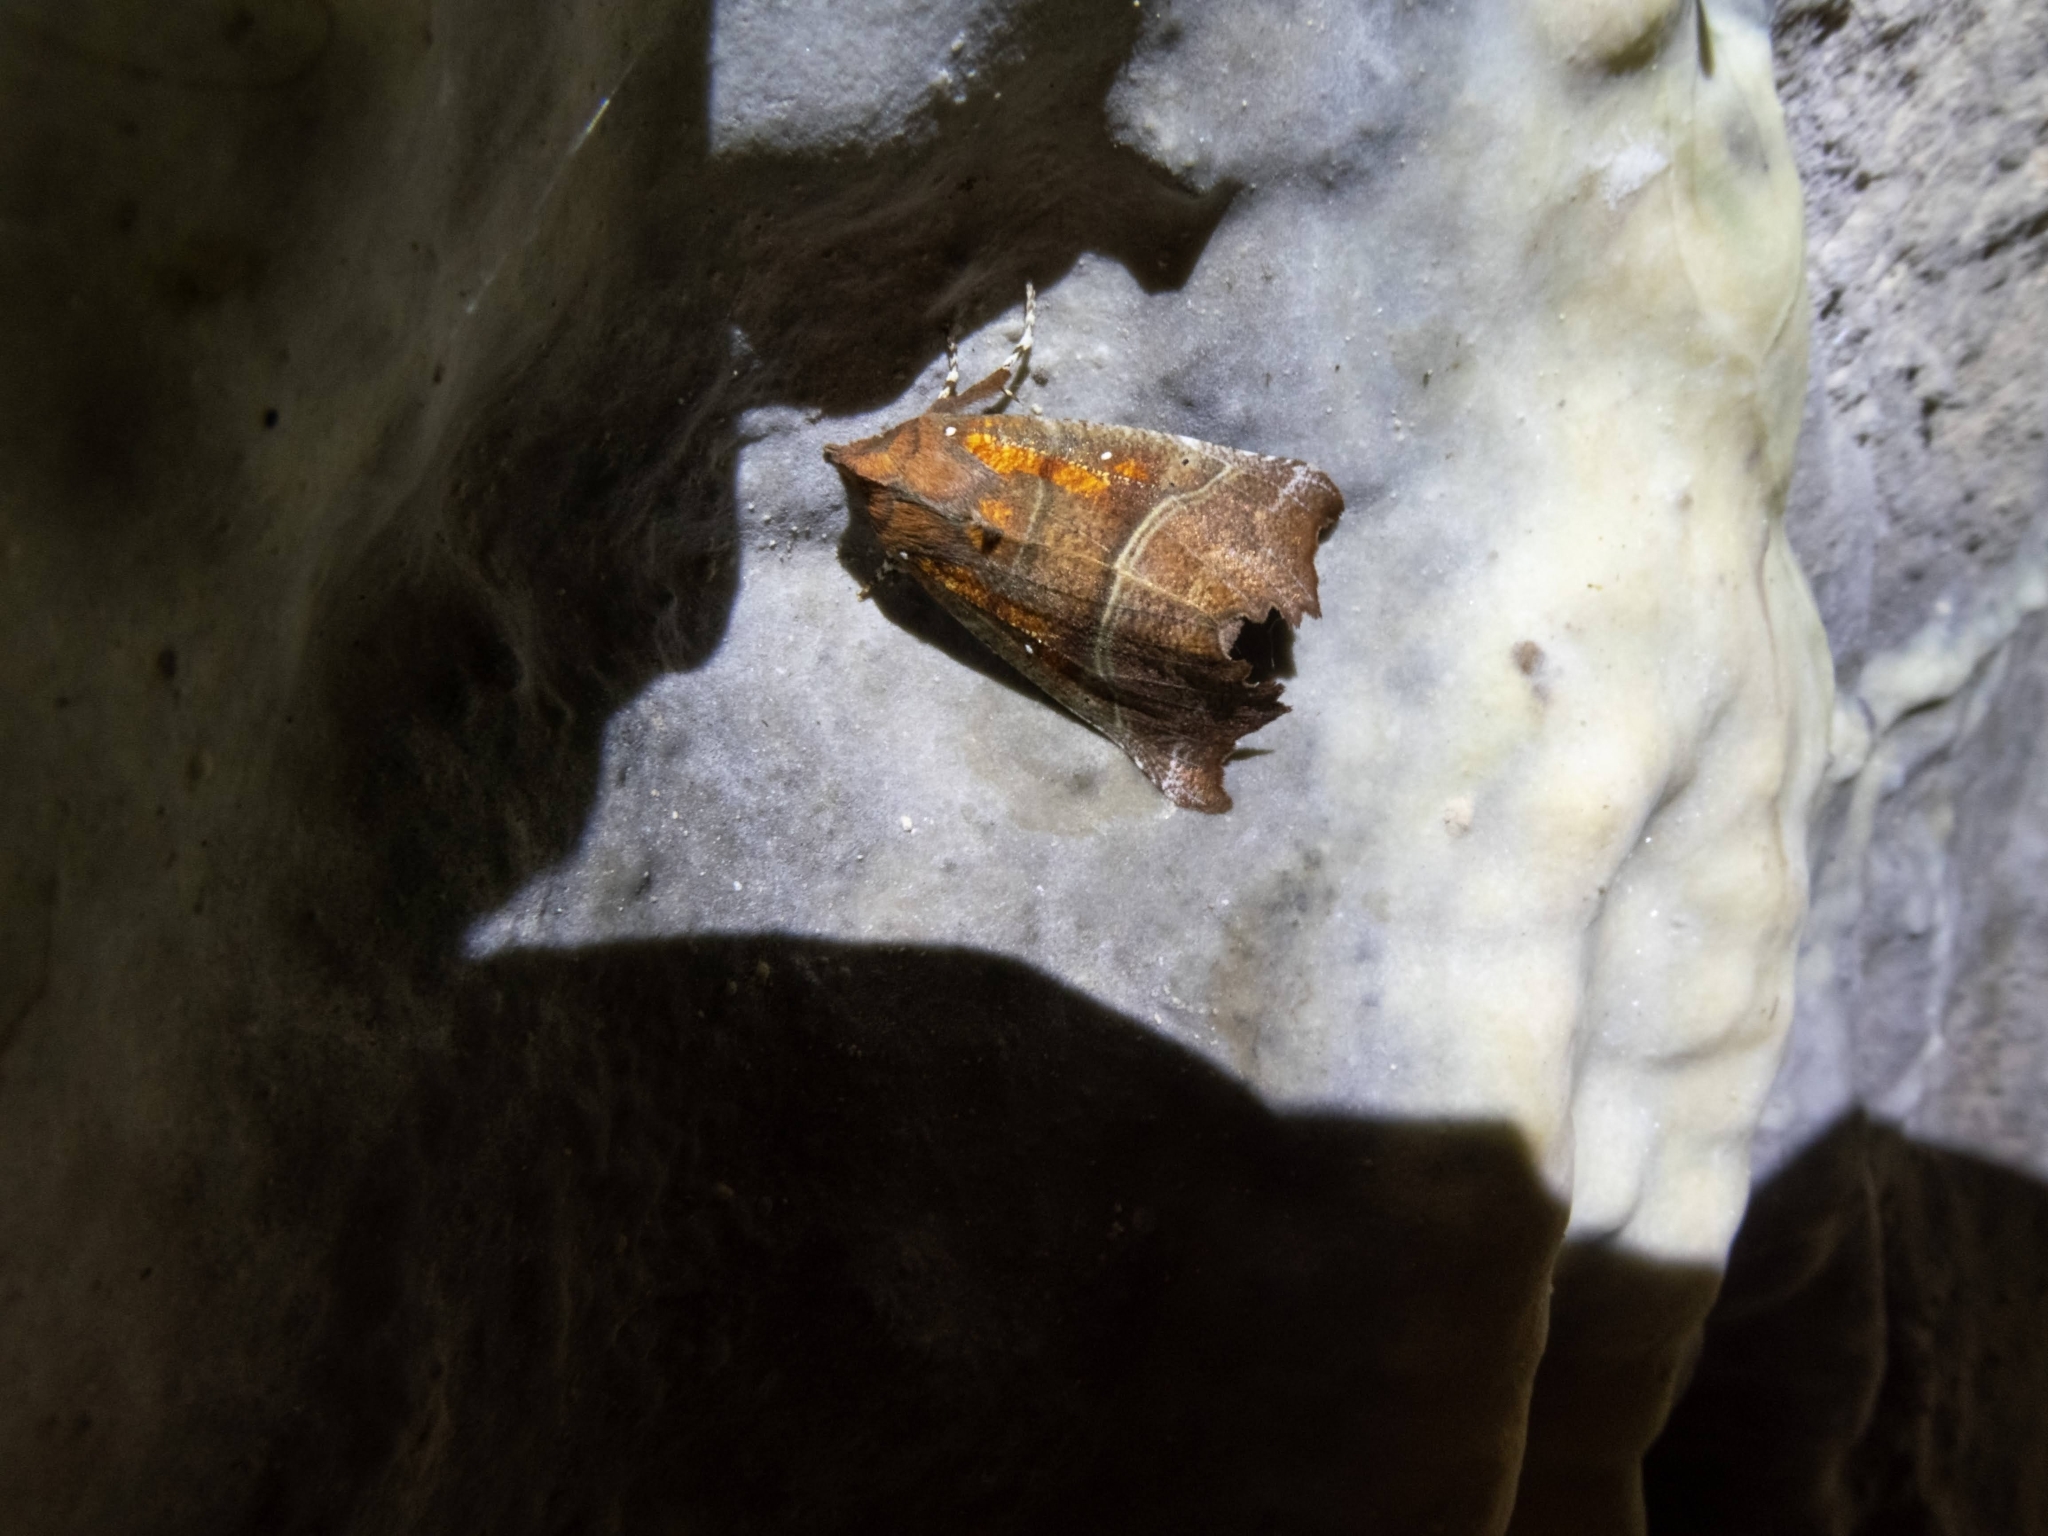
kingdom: Animalia
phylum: Arthropoda
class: Insecta
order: Lepidoptera
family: Erebidae
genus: Scoliopteryx
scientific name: Scoliopteryx libatrix
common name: Herald
